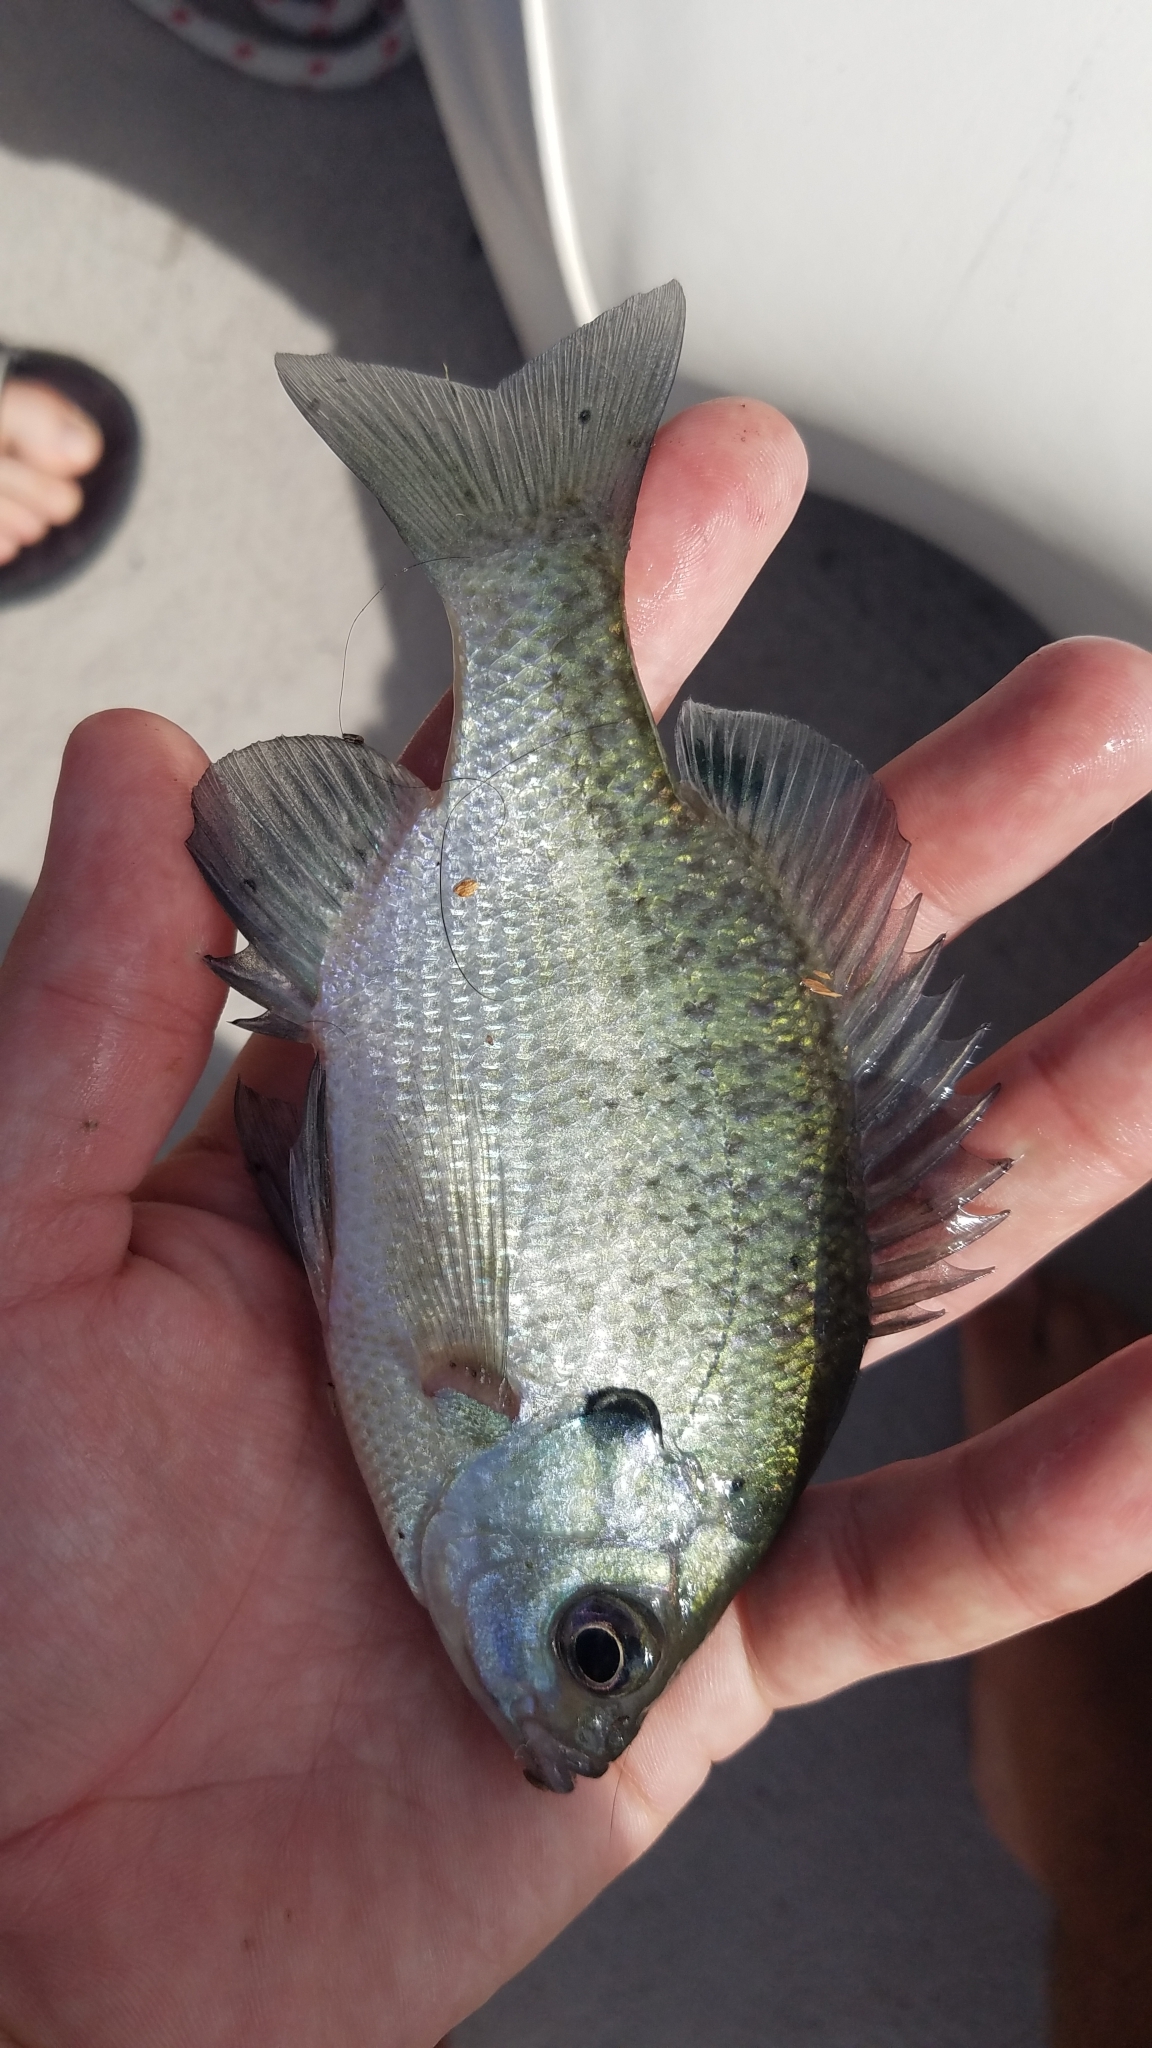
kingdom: Animalia
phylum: Chordata
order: Perciformes
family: Centrarchidae
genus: Lepomis
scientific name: Lepomis macrochirus
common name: Bluegill
